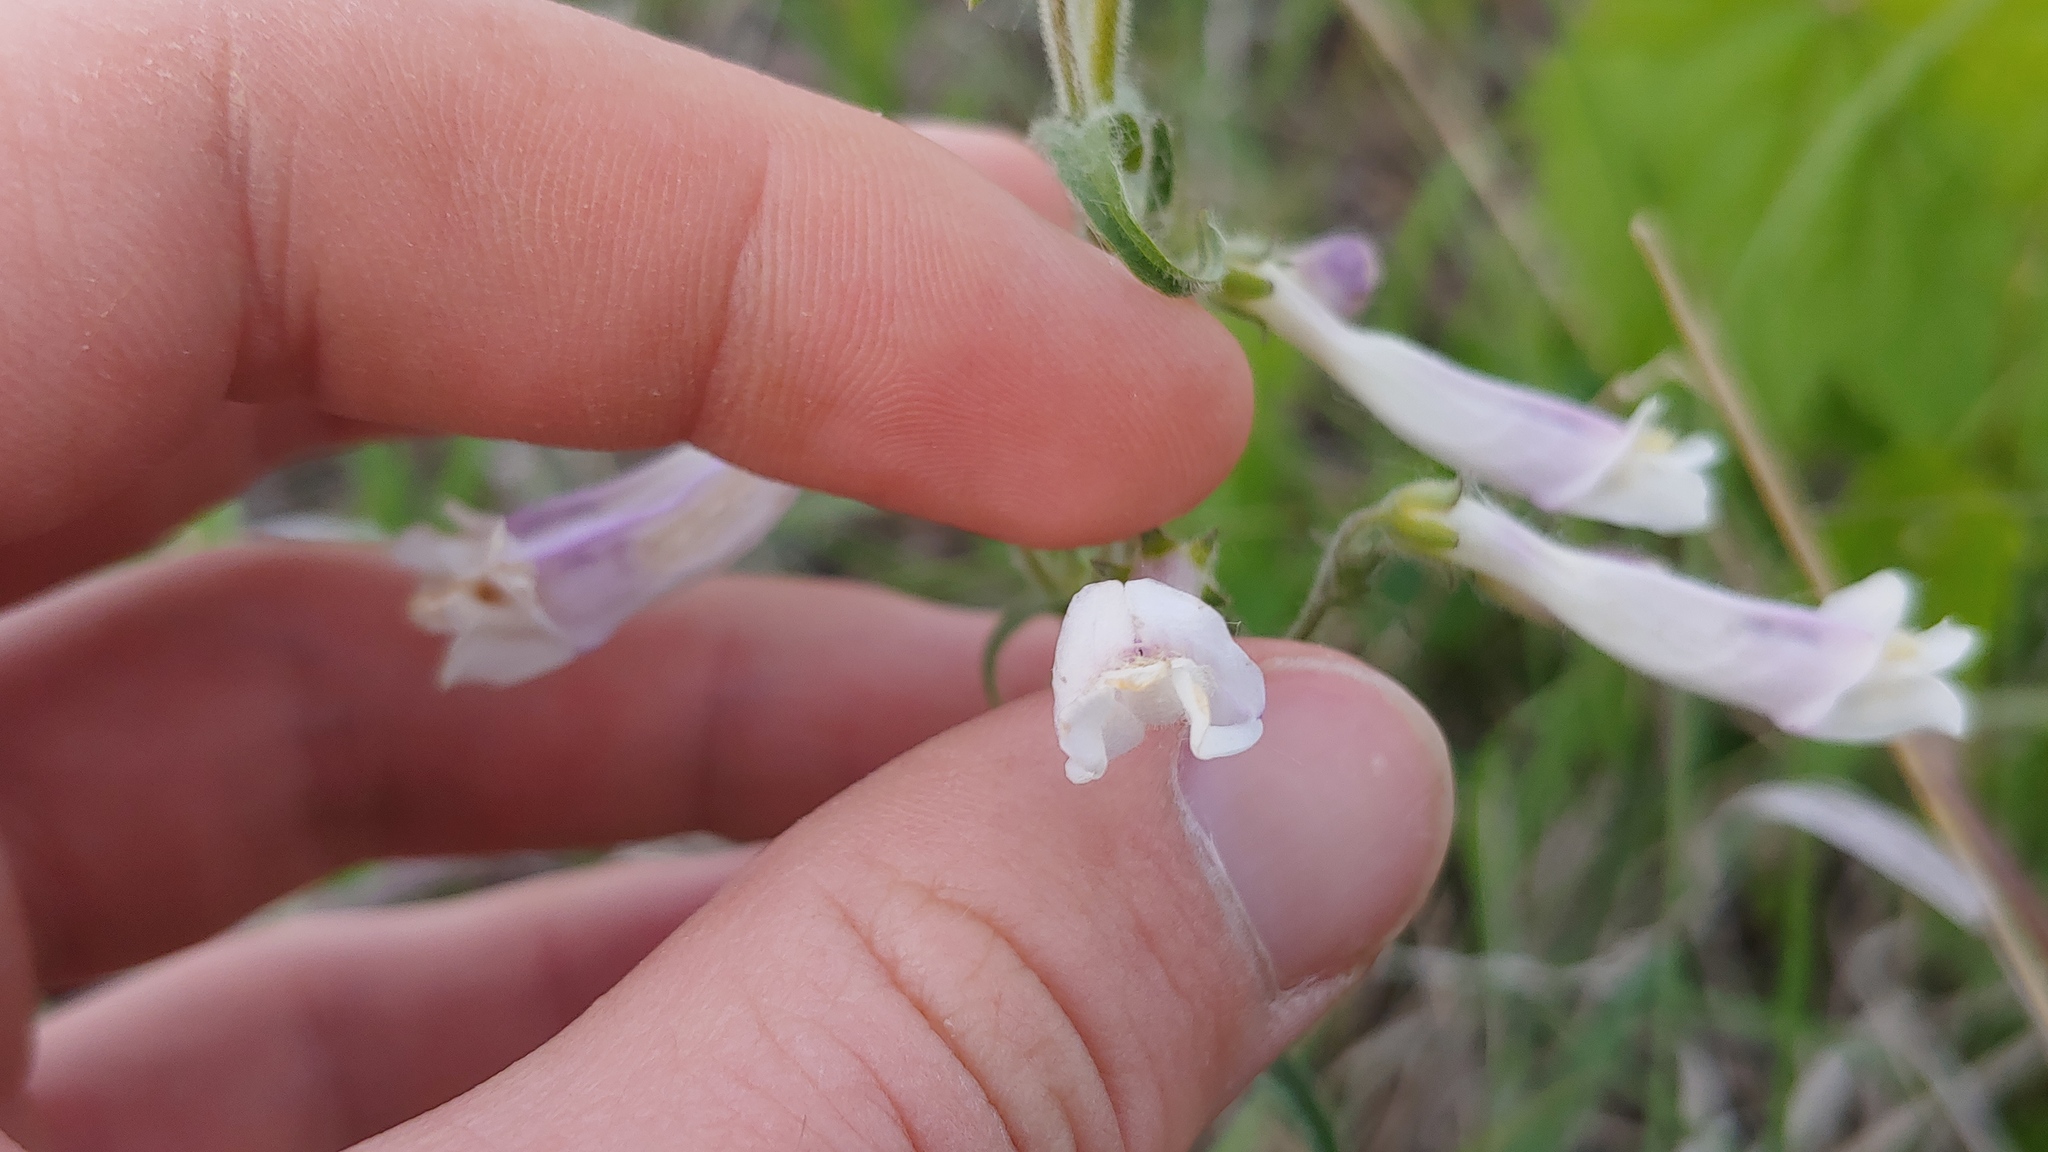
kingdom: Plantae
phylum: Tracheophyta
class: Magnoliopsida
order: Lamiales
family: Plantaginaceae
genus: Penstemon
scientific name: Penstemon hirsutus
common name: Hairy beardtongue
